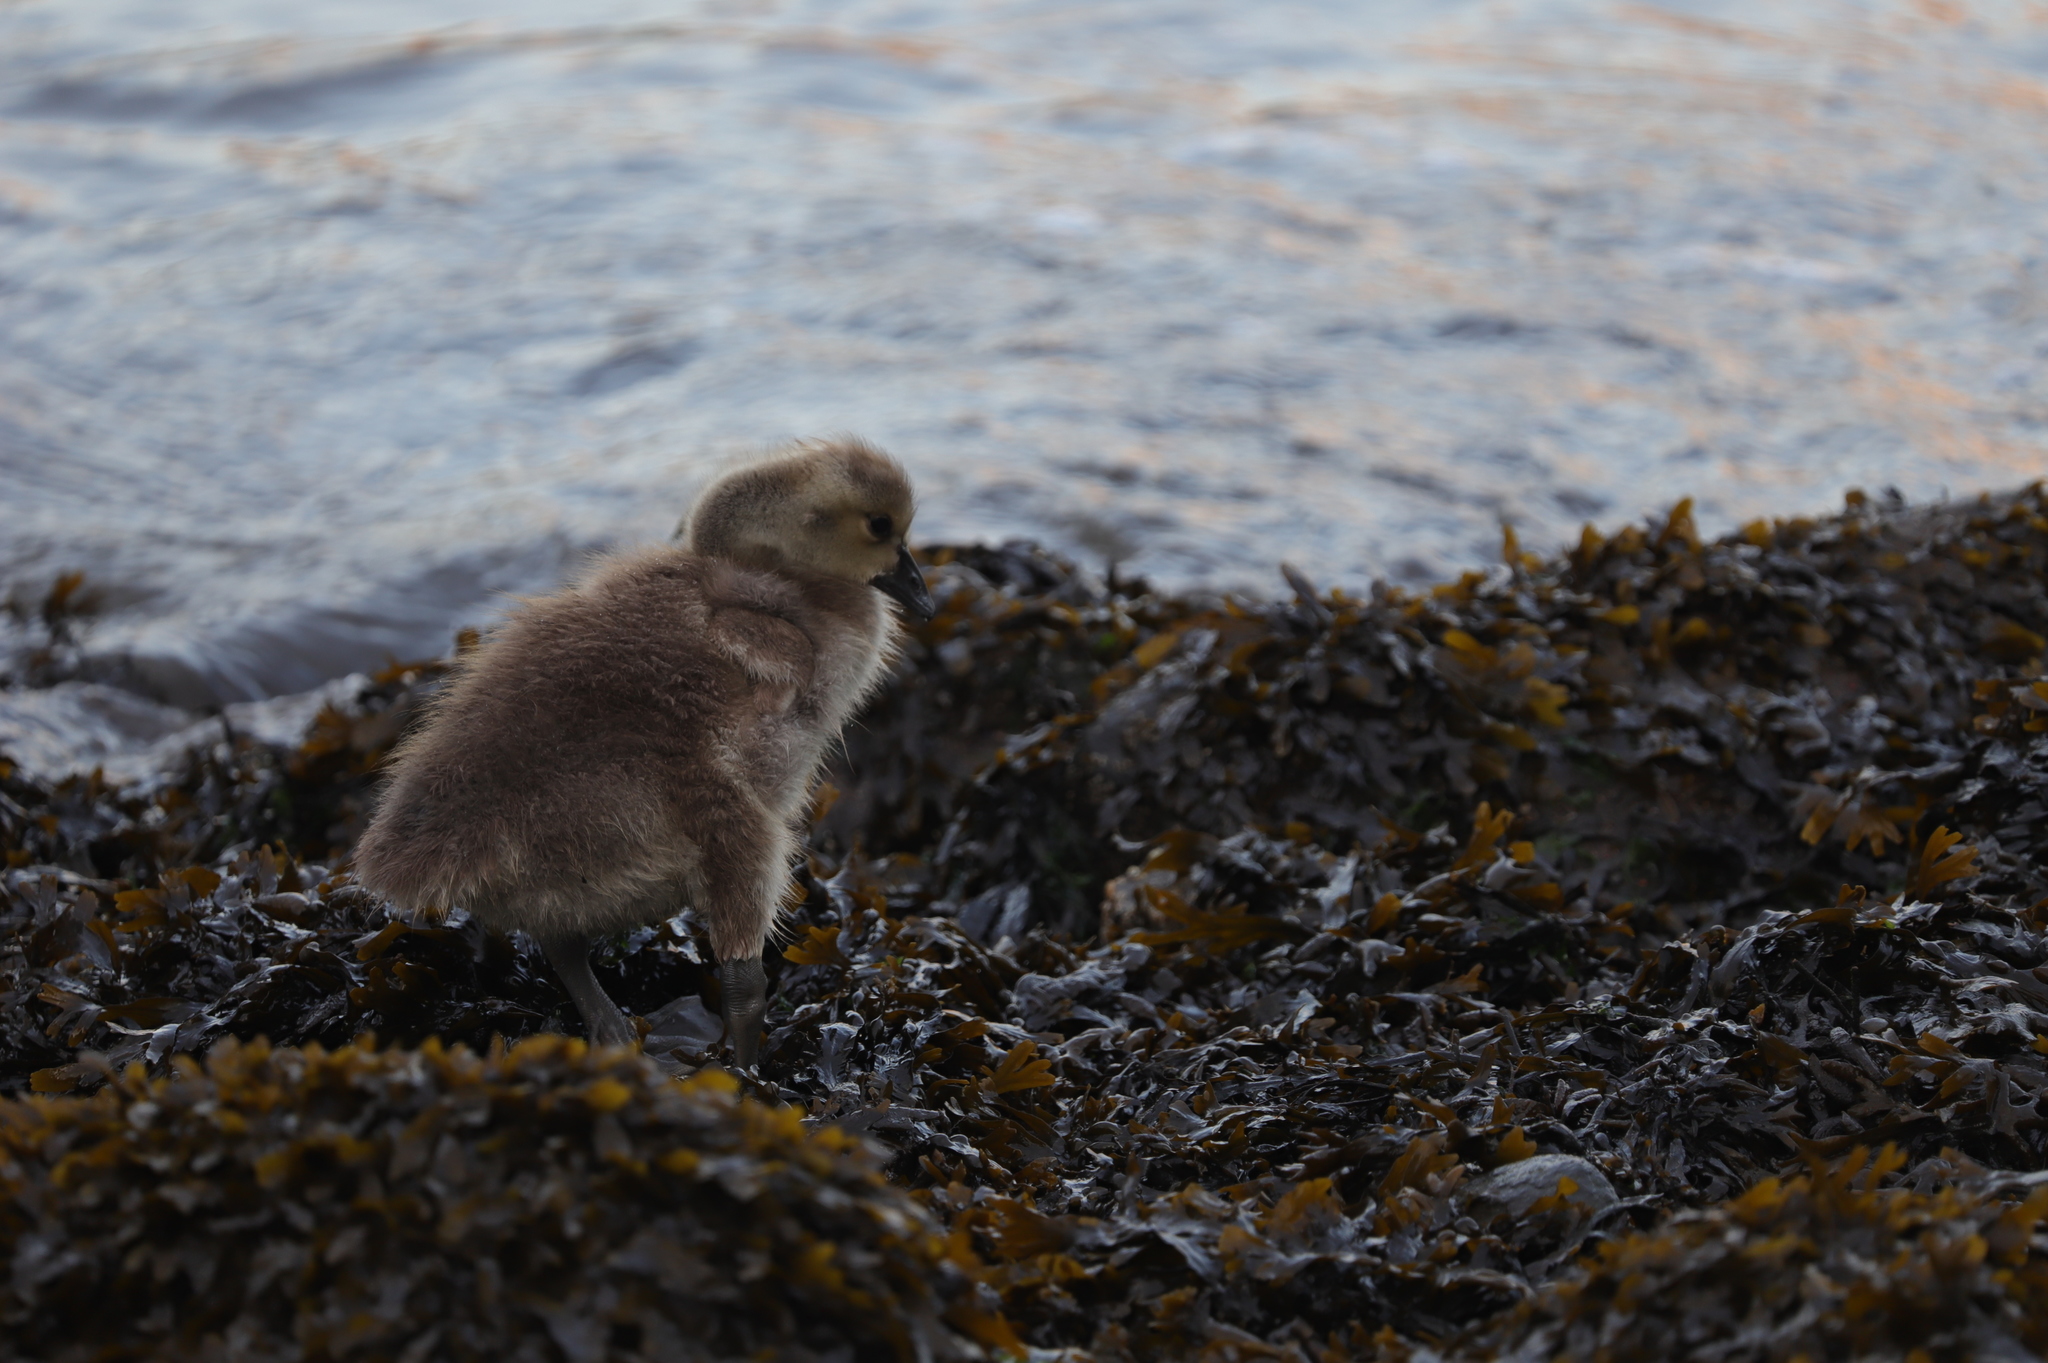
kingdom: Animalia
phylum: Chordata
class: Aves
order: Anseriformes
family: Anatidae
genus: Branta
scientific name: Branta canadensis
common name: Canada goose
